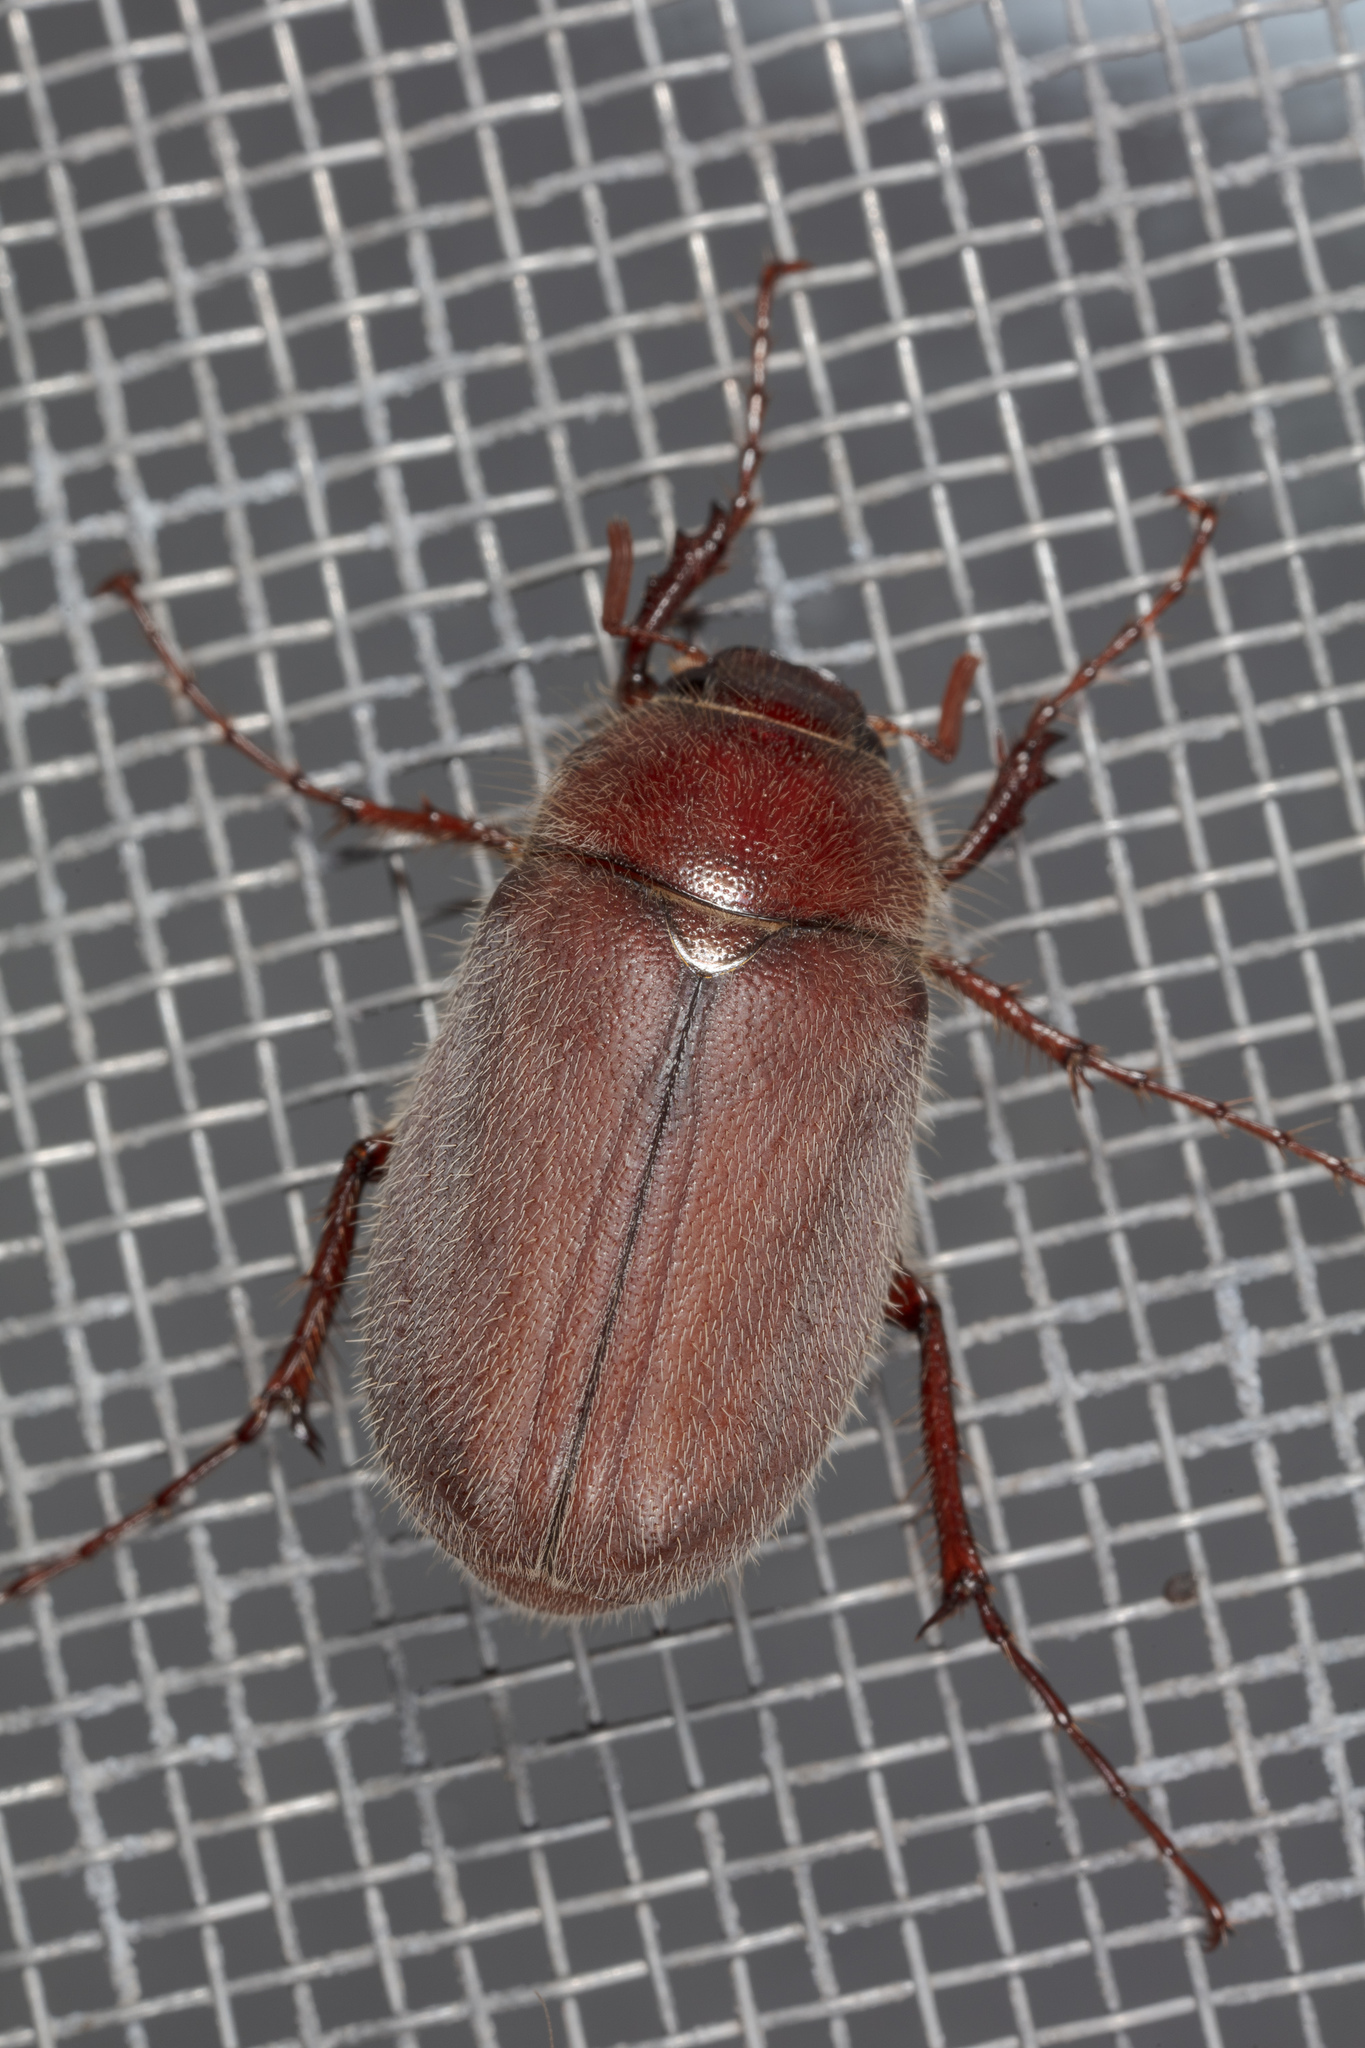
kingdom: Animalia
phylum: Arthropoda
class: Insecta
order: Coleoptera
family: Scarabaeidae
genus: Phyllophaga
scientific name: Phyllophaga rubiginosa
